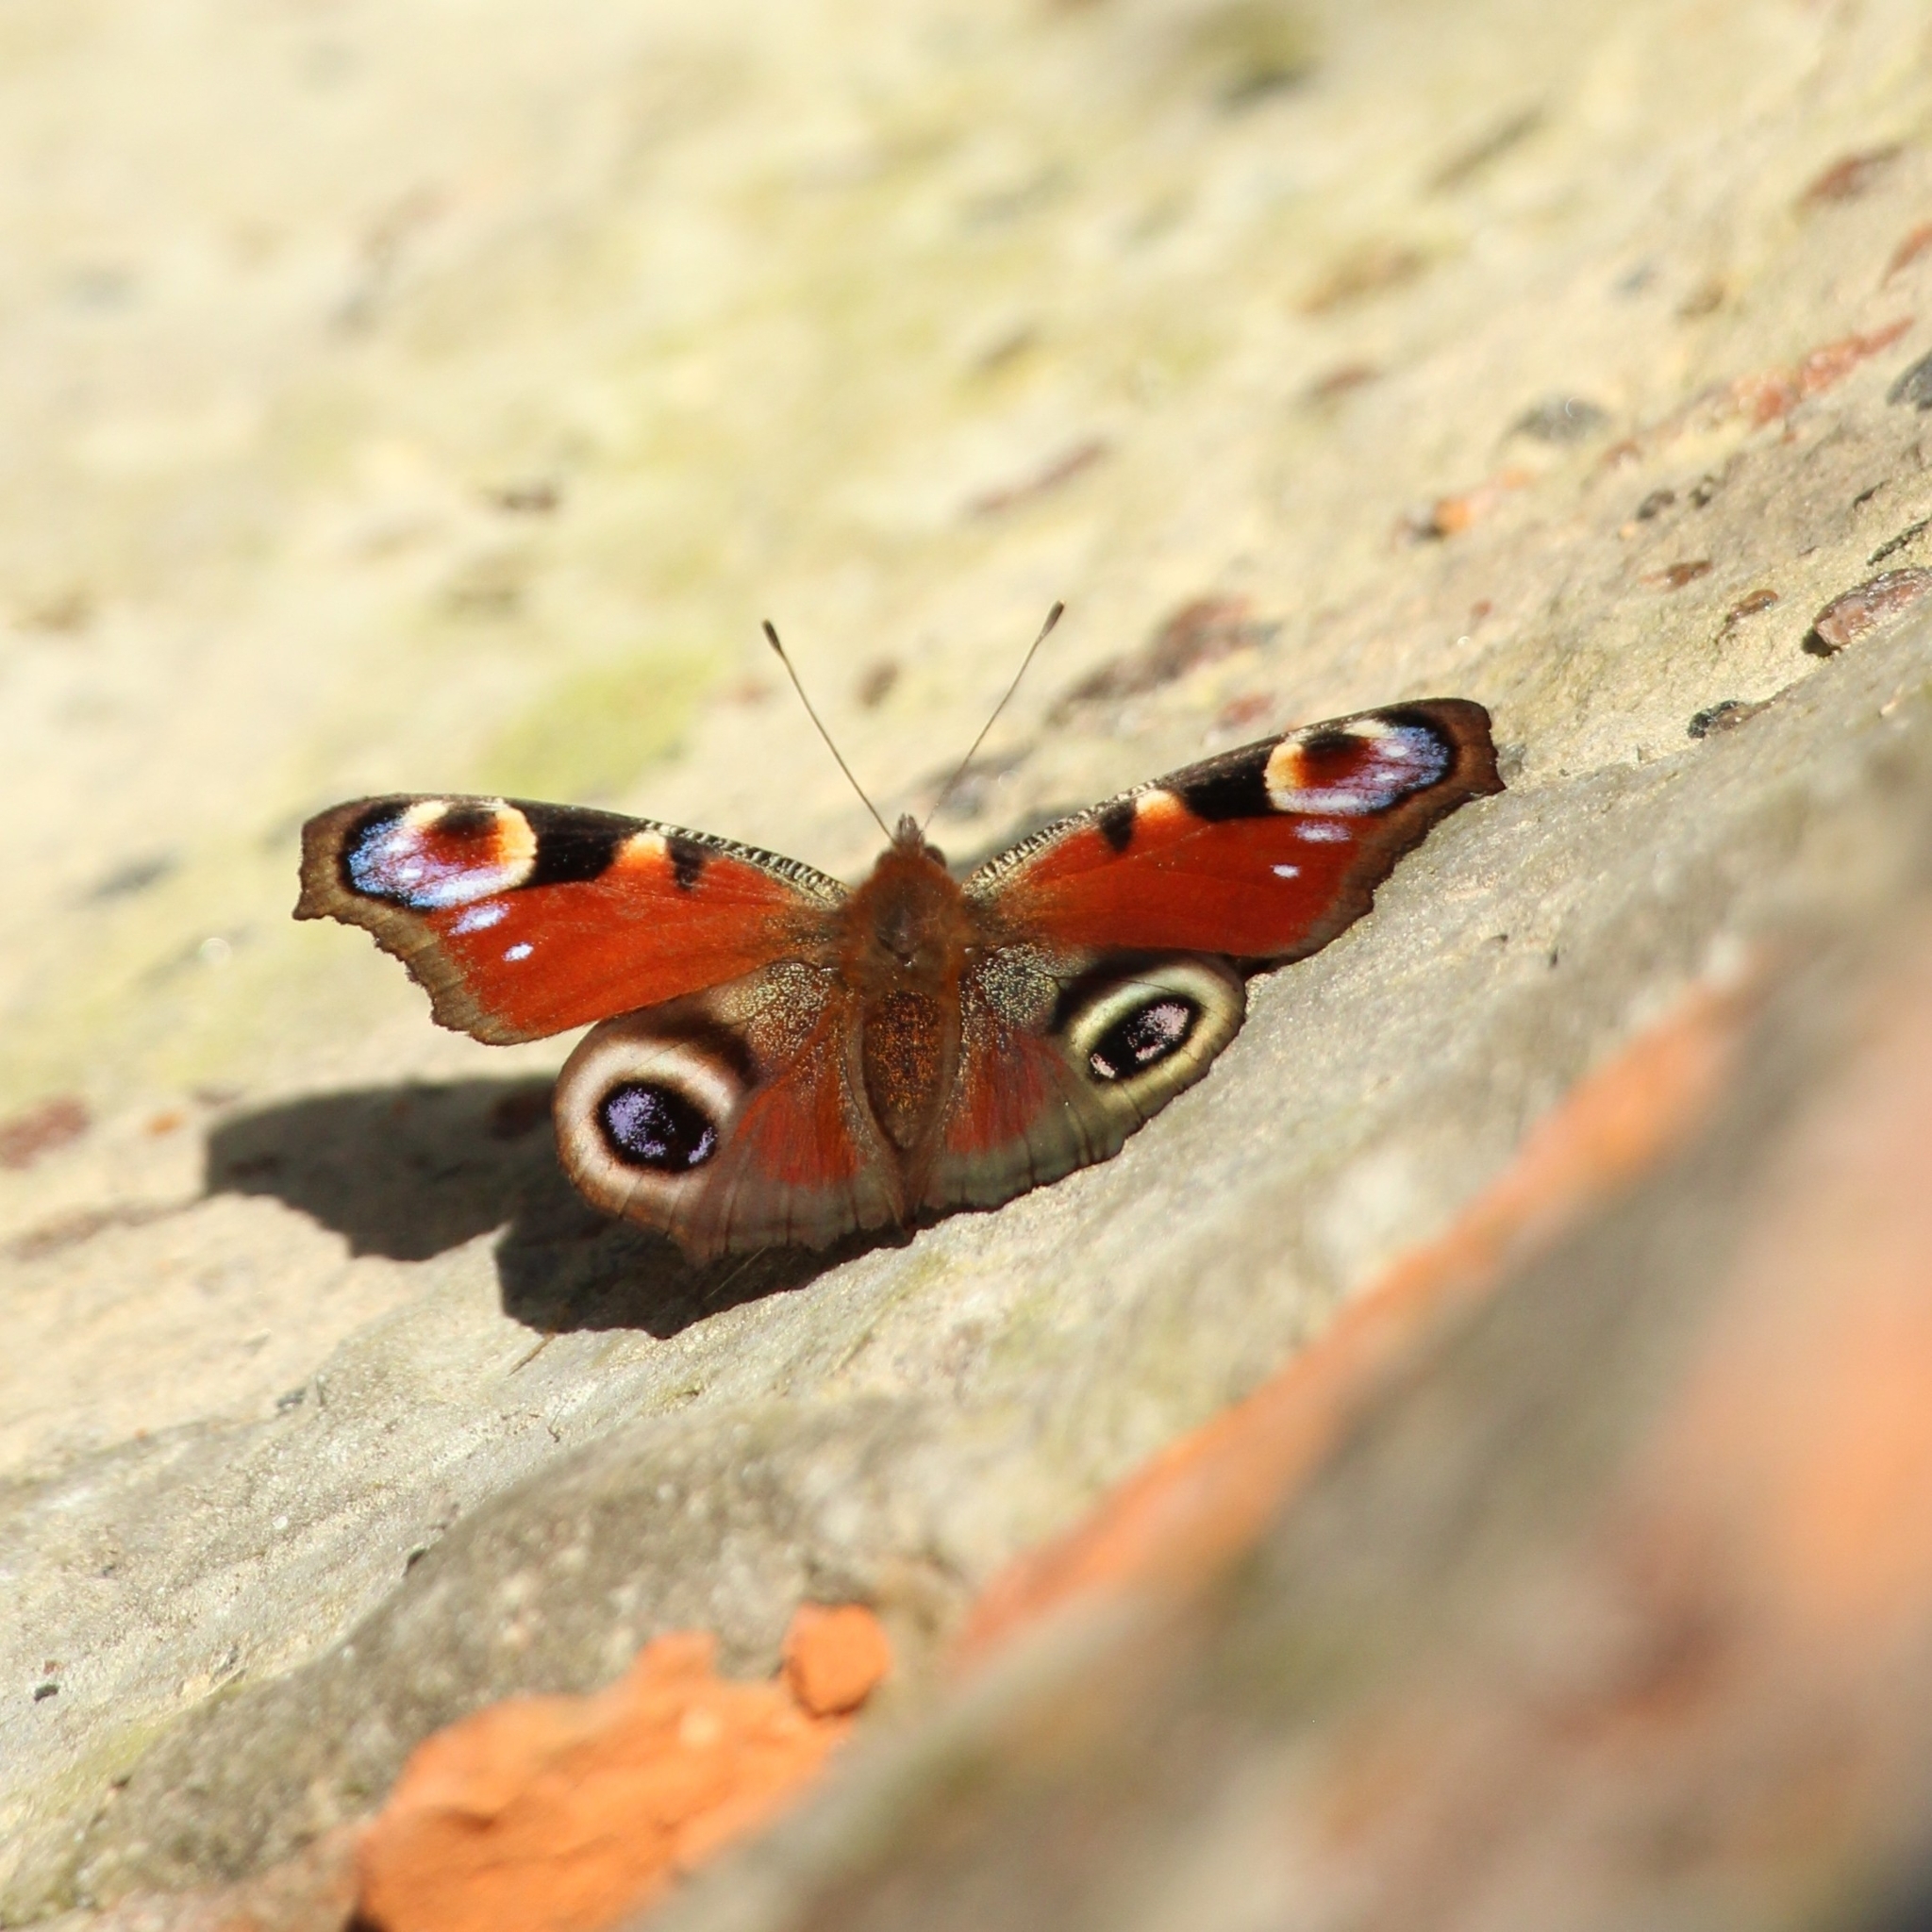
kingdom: Animalia
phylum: Arthropoda
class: Insecta
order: Lepidoptera
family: Nymphalidae
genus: Aglais
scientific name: Aglais io
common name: Peacock
